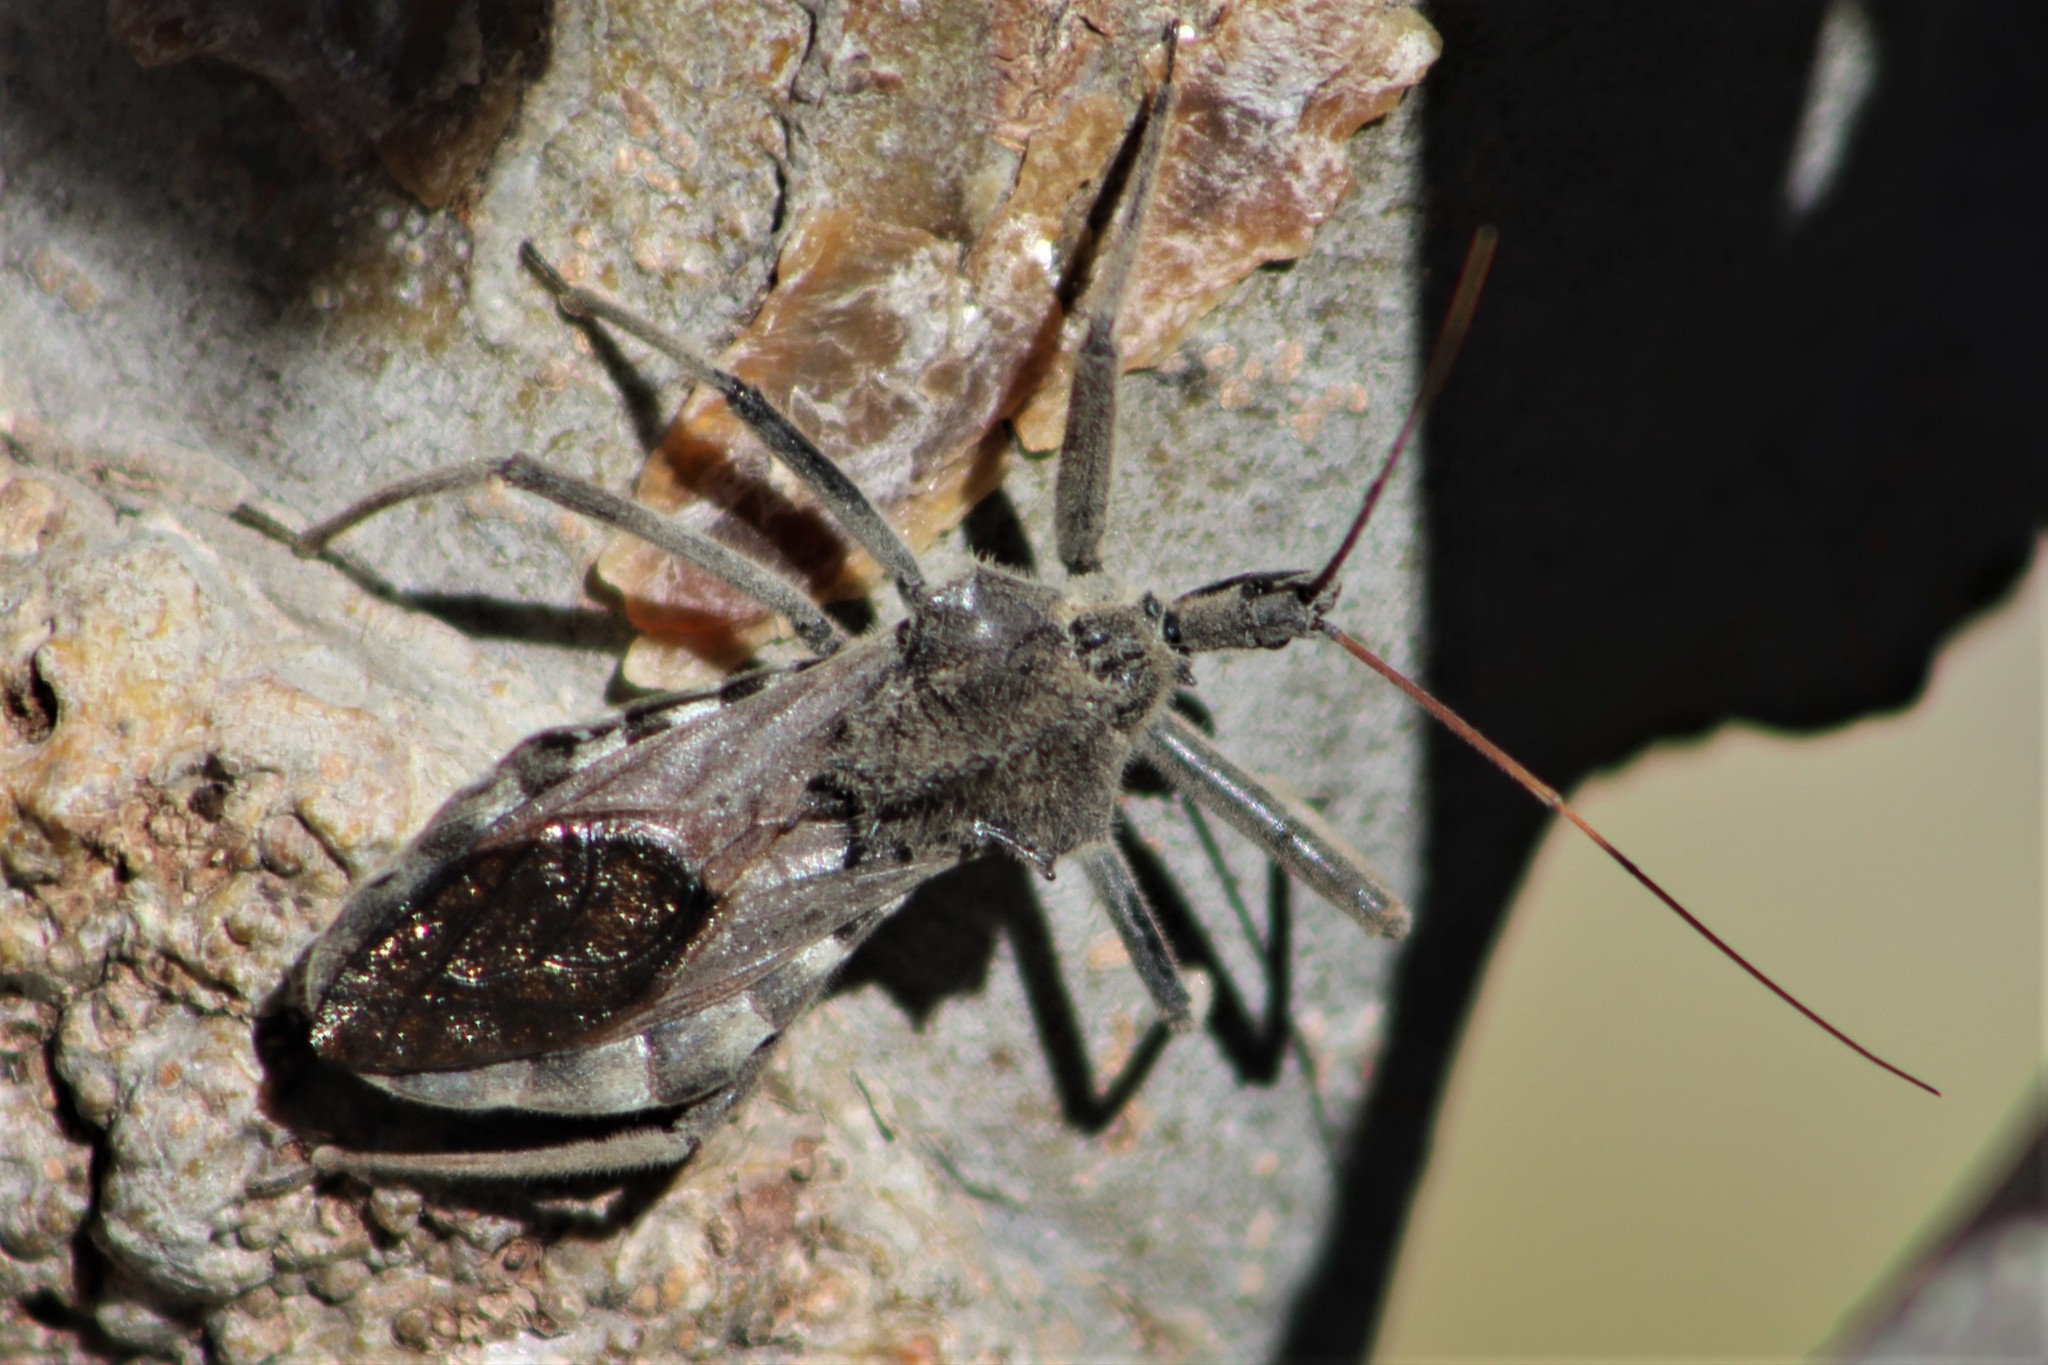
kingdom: Animalia
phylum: Arthropoda
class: Insecta
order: Hemiptera
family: Reduviidae
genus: Arilus
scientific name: Arilus cristatus
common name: North american wheel bug
